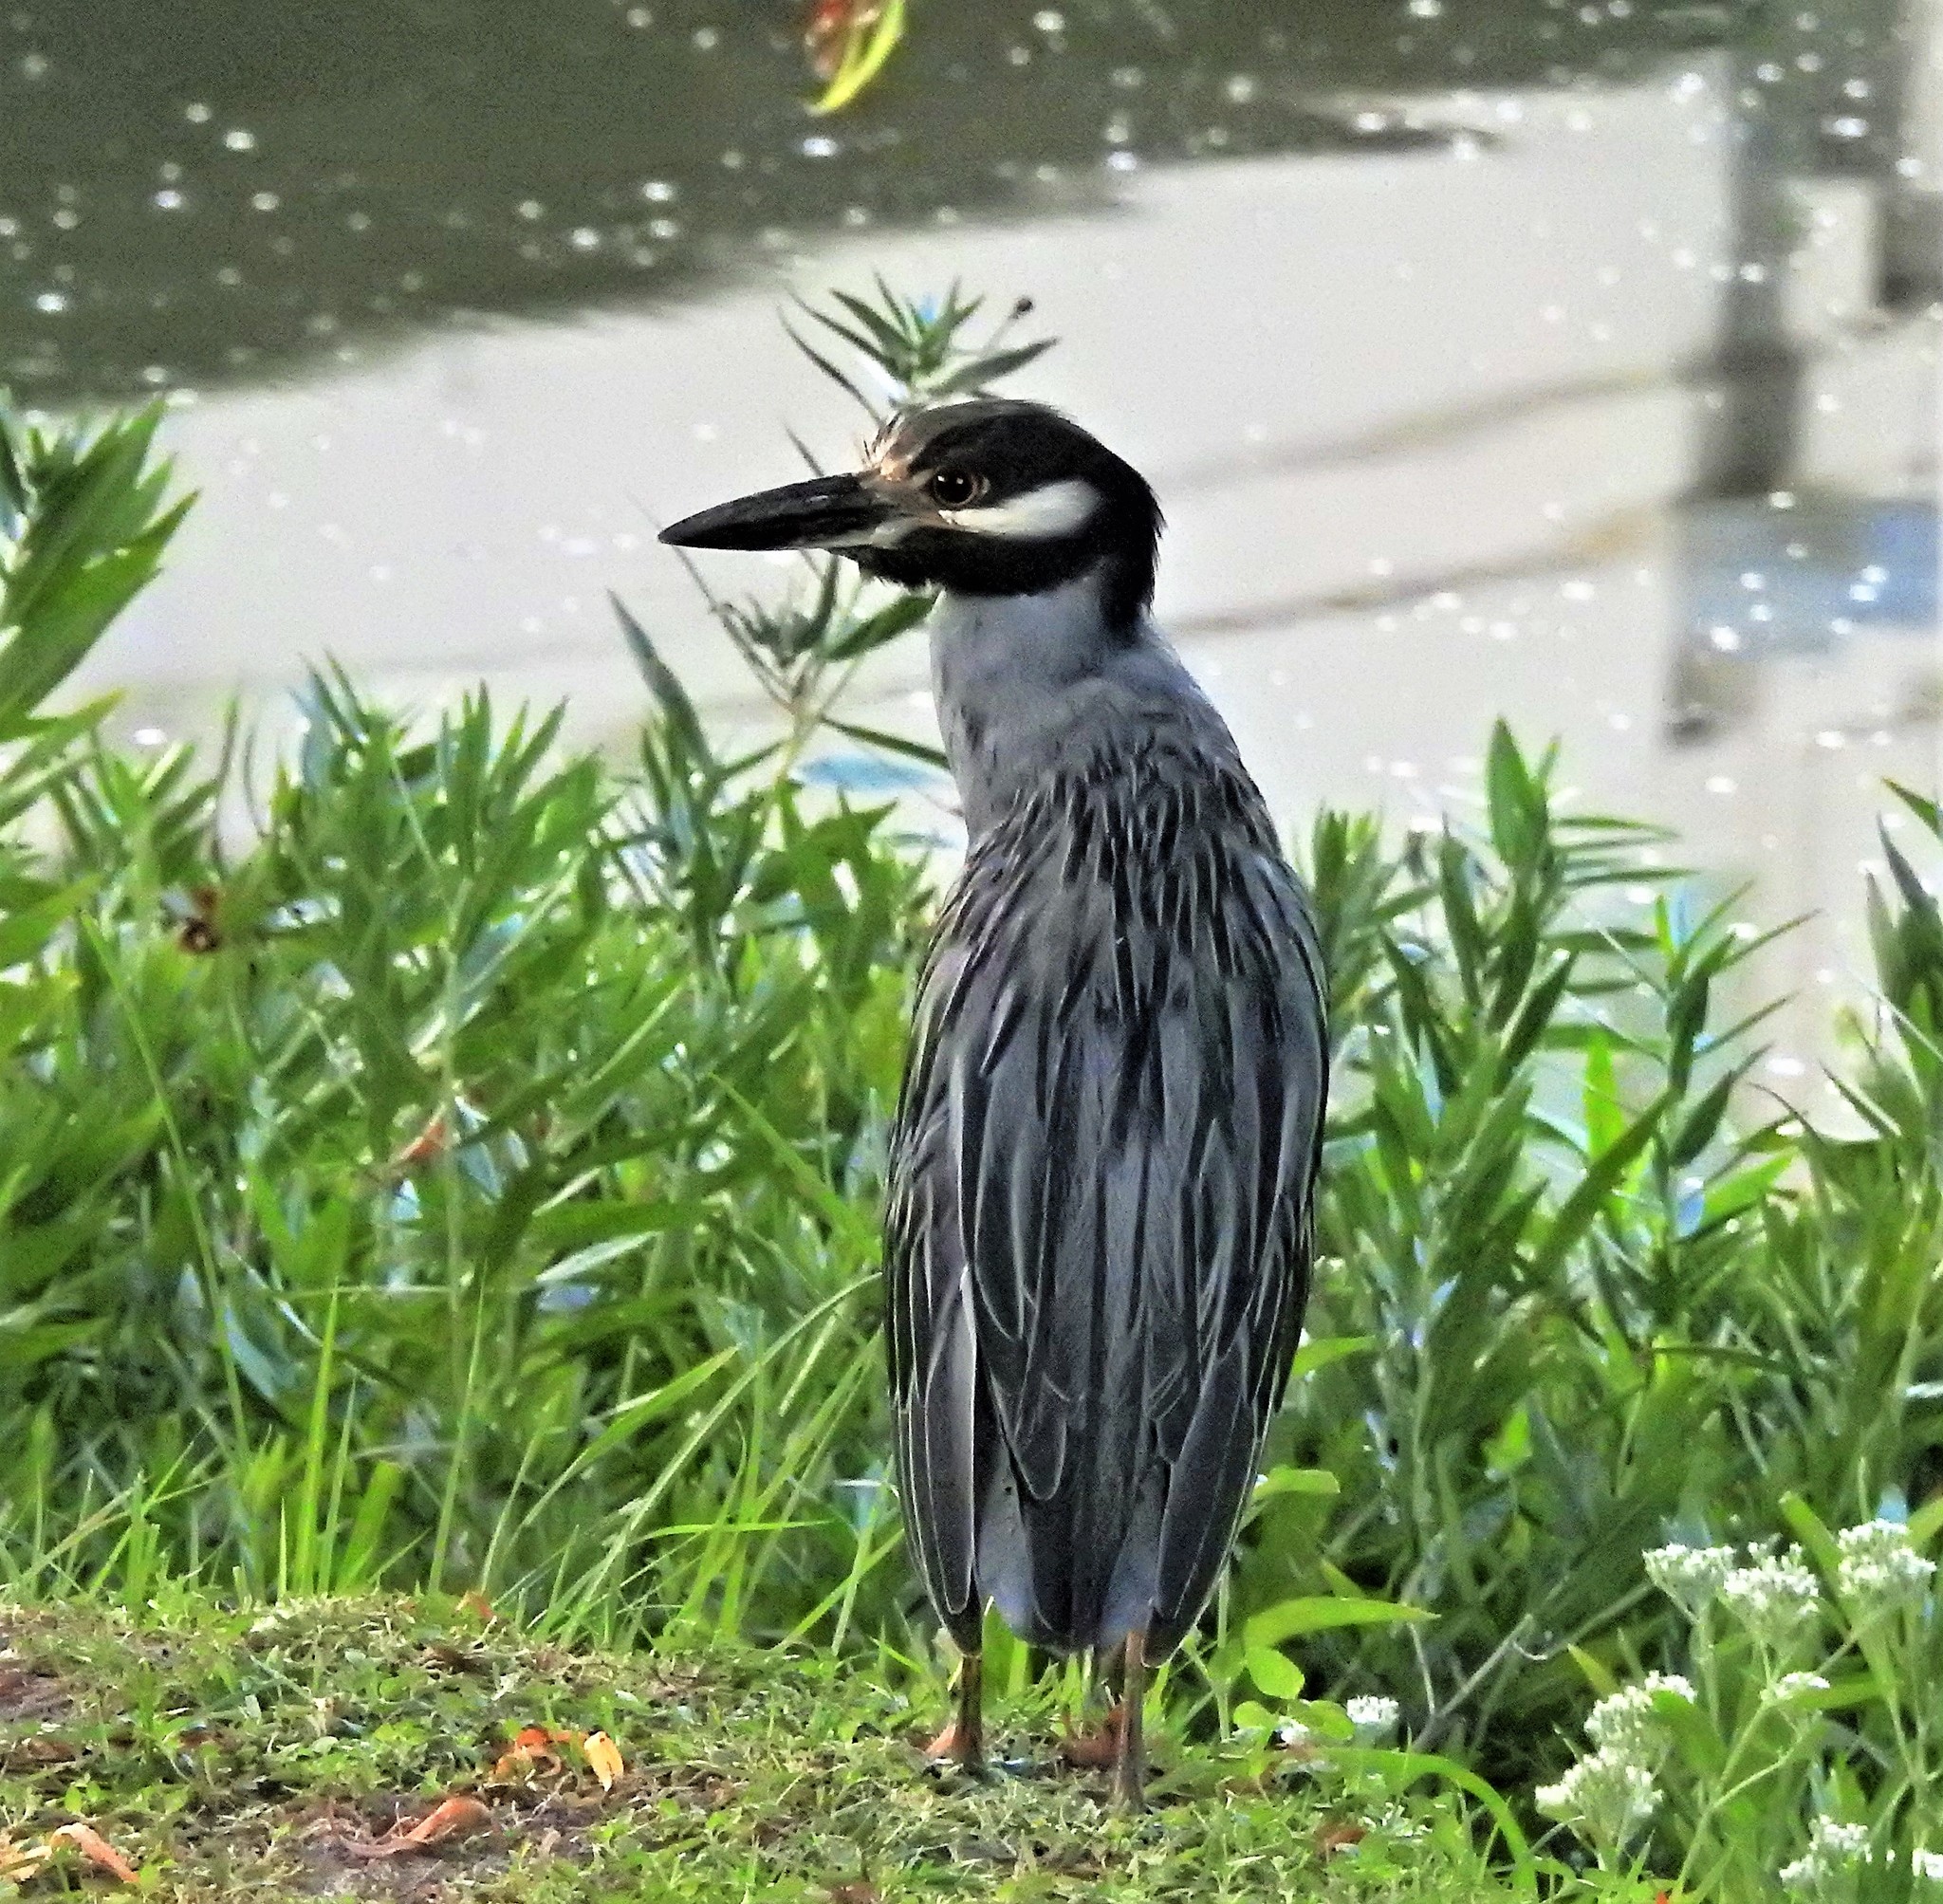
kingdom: Animalia
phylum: Chordata
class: Aves
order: Pelecaniformes
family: Ardeidae
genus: Nyctanassa
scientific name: Nyctanassa violacea
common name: Yellow-crowned night heron
